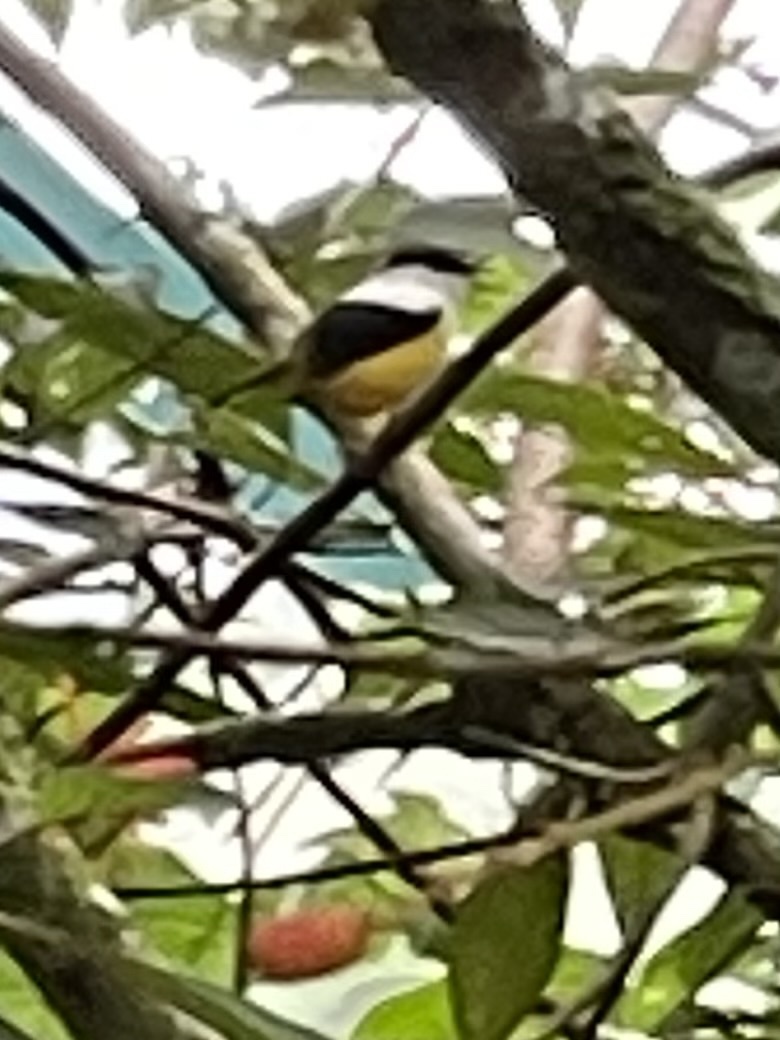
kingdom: Animalia
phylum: Chordata
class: Aves
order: Passeriformes
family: Pipridae
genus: Manacus
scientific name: Manacus candei
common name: White-collared manakin
